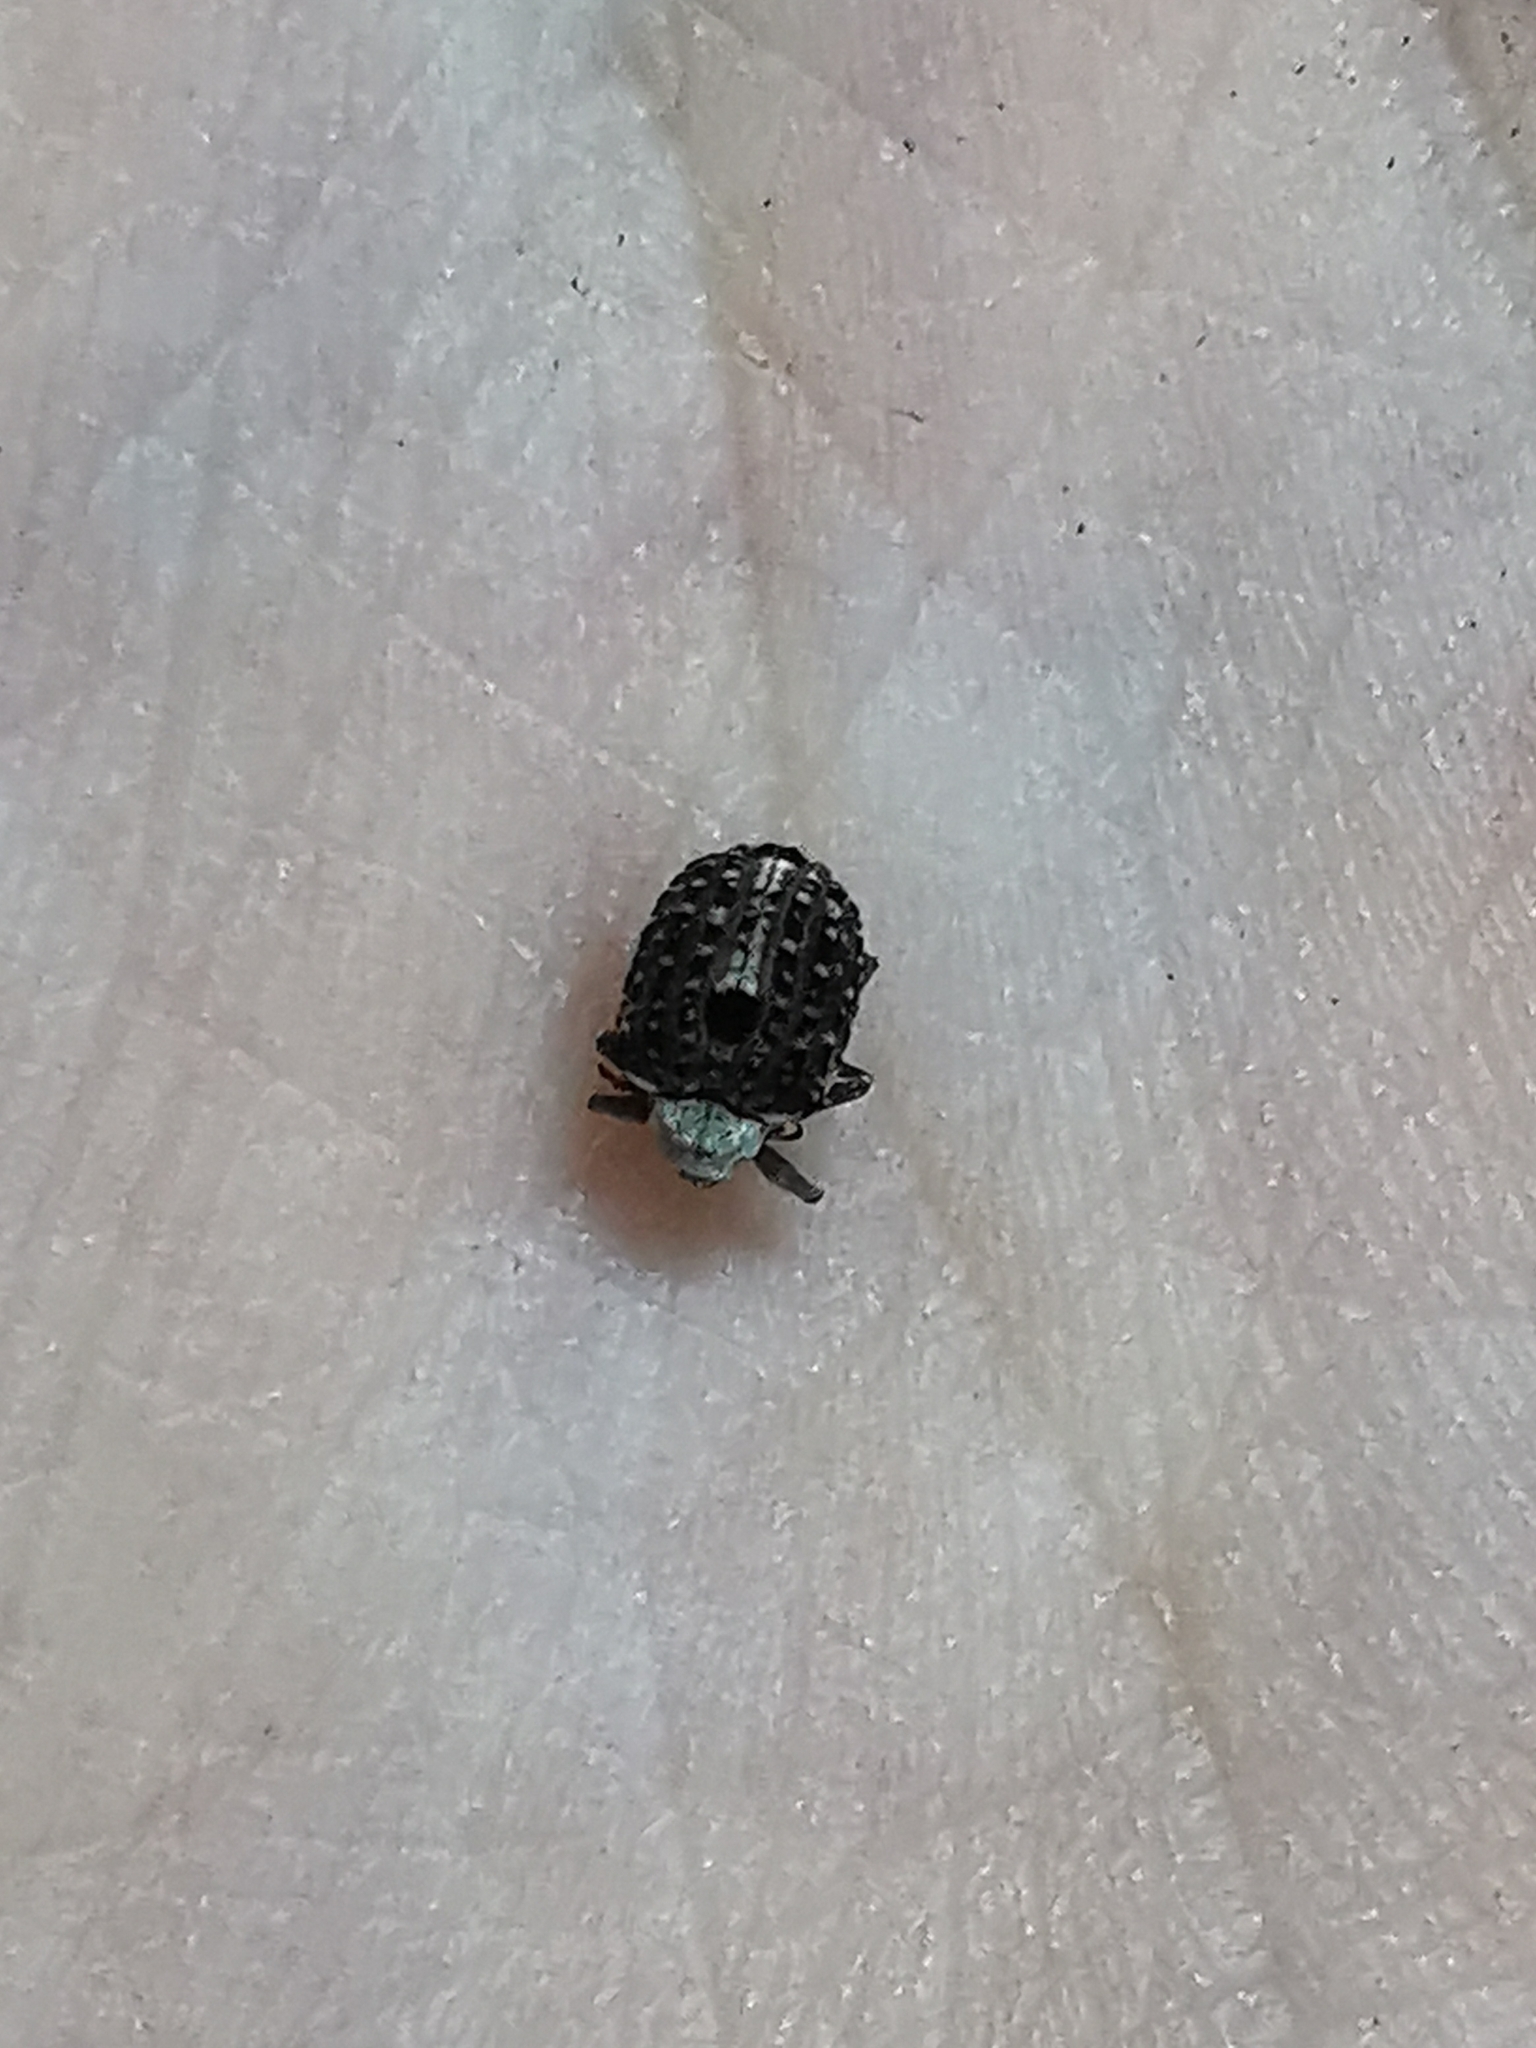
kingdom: Animalia
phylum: Arthropoda
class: Insecta
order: Coleoptera
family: Curculionidae
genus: Cionus
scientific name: Cionus scrophulariae
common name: Common figwort weevil
